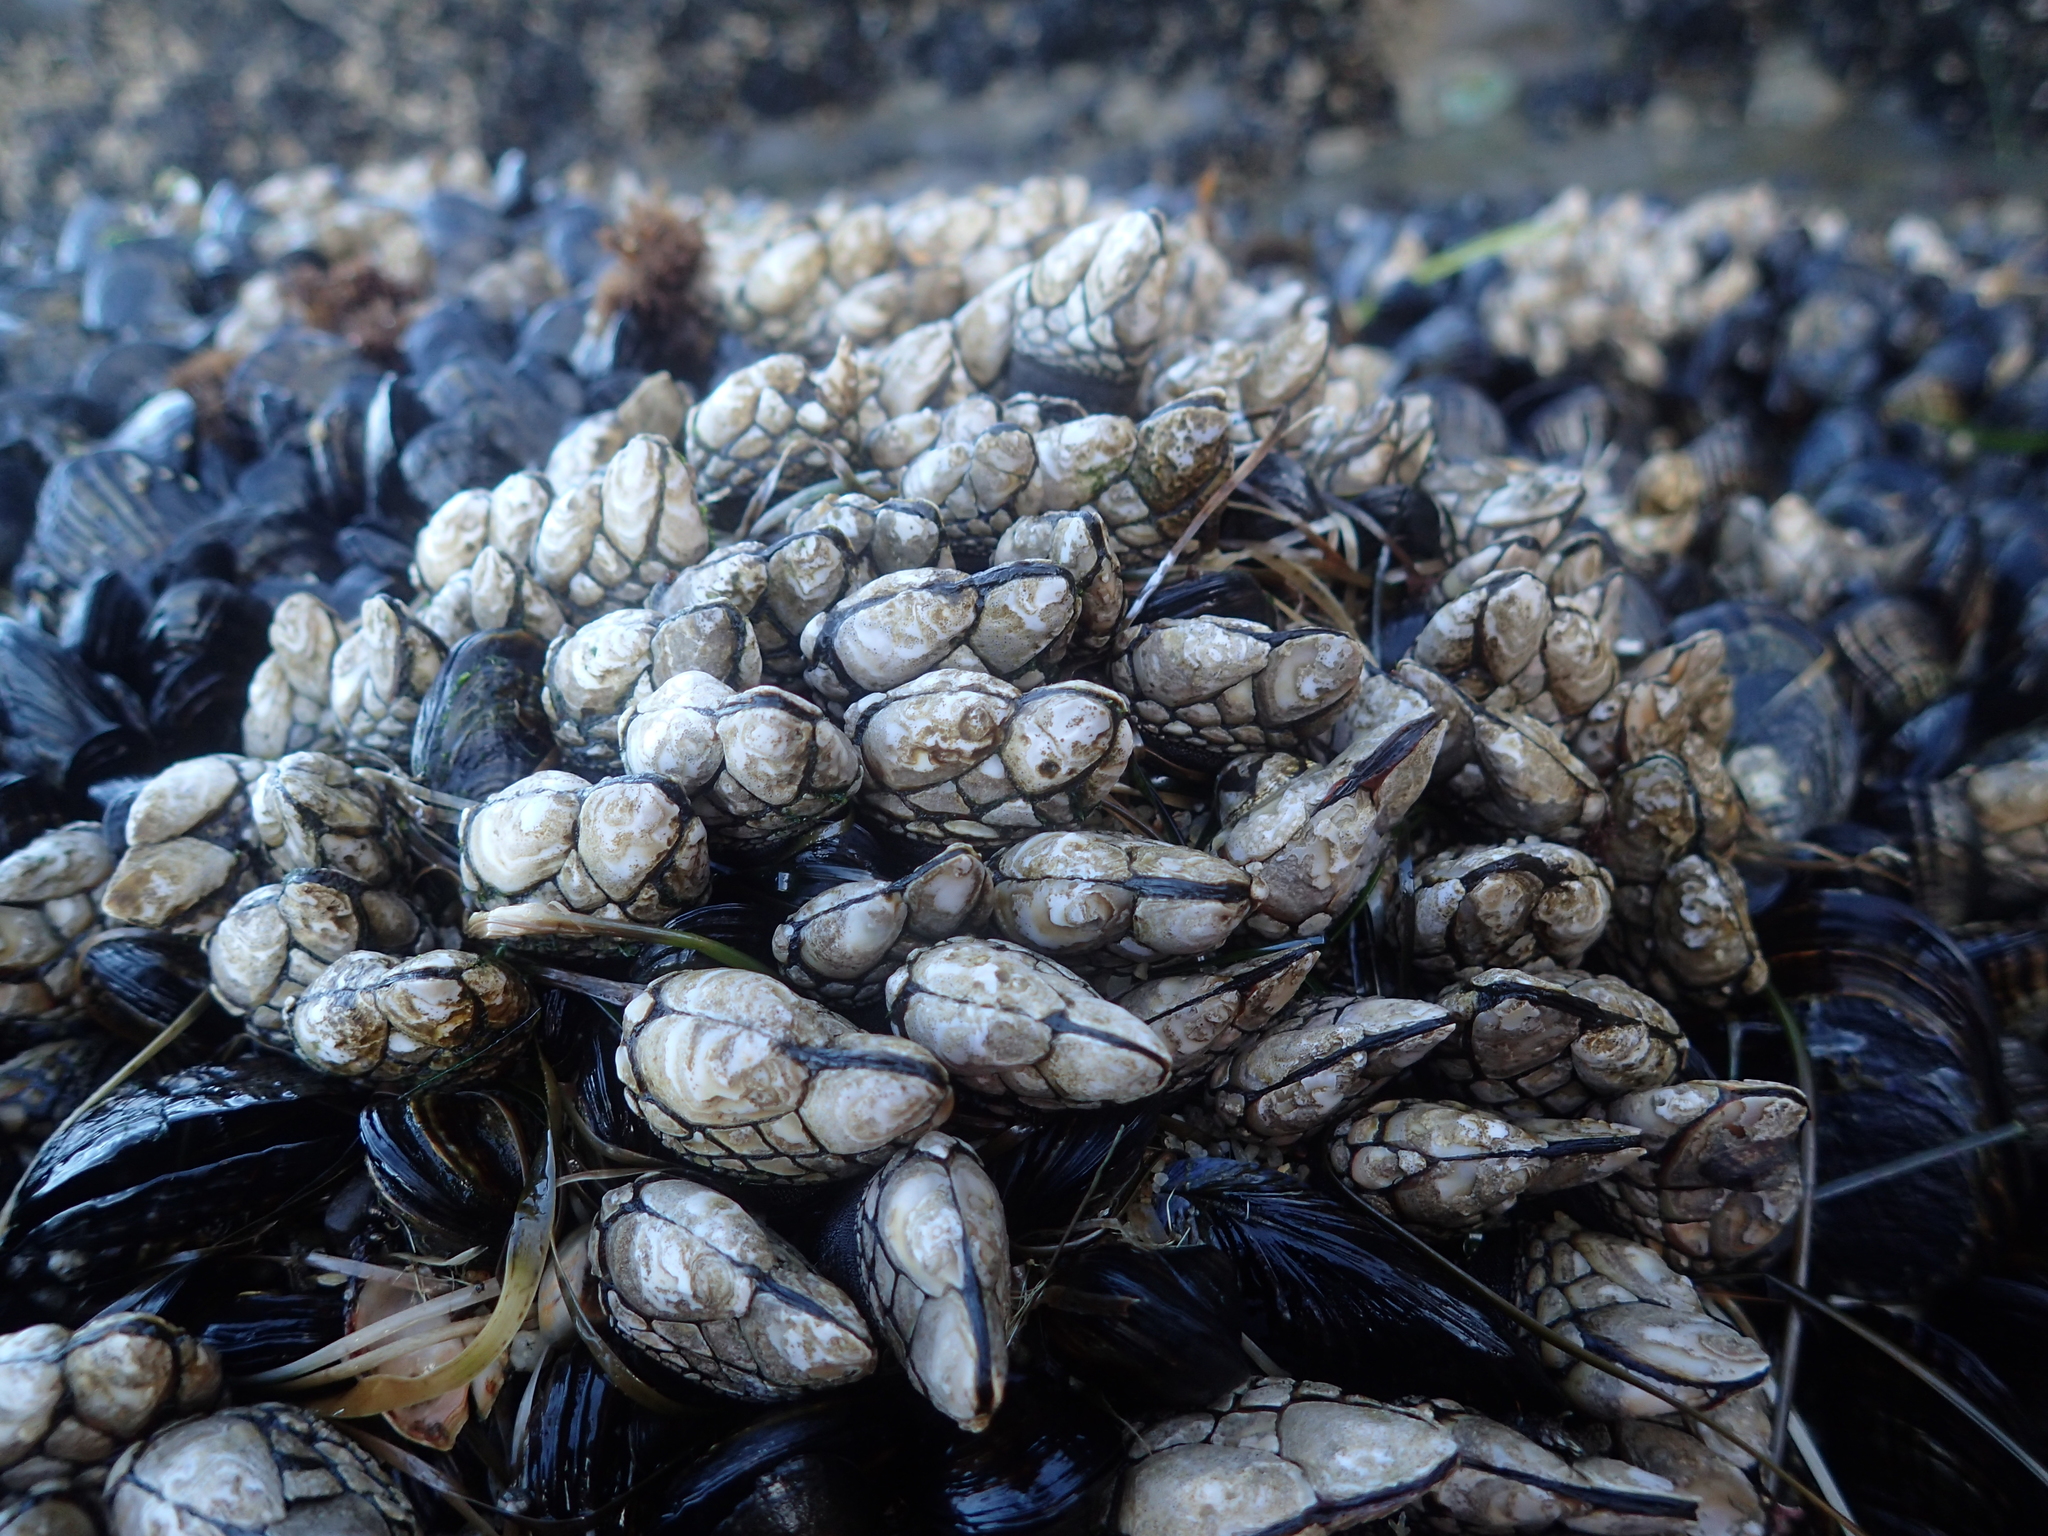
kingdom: Animalia
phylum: Arthropoda
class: Maxillopoda
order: Pedunculata
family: Pollicipedidae
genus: Pollicipes
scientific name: Pollicipes polymerus
